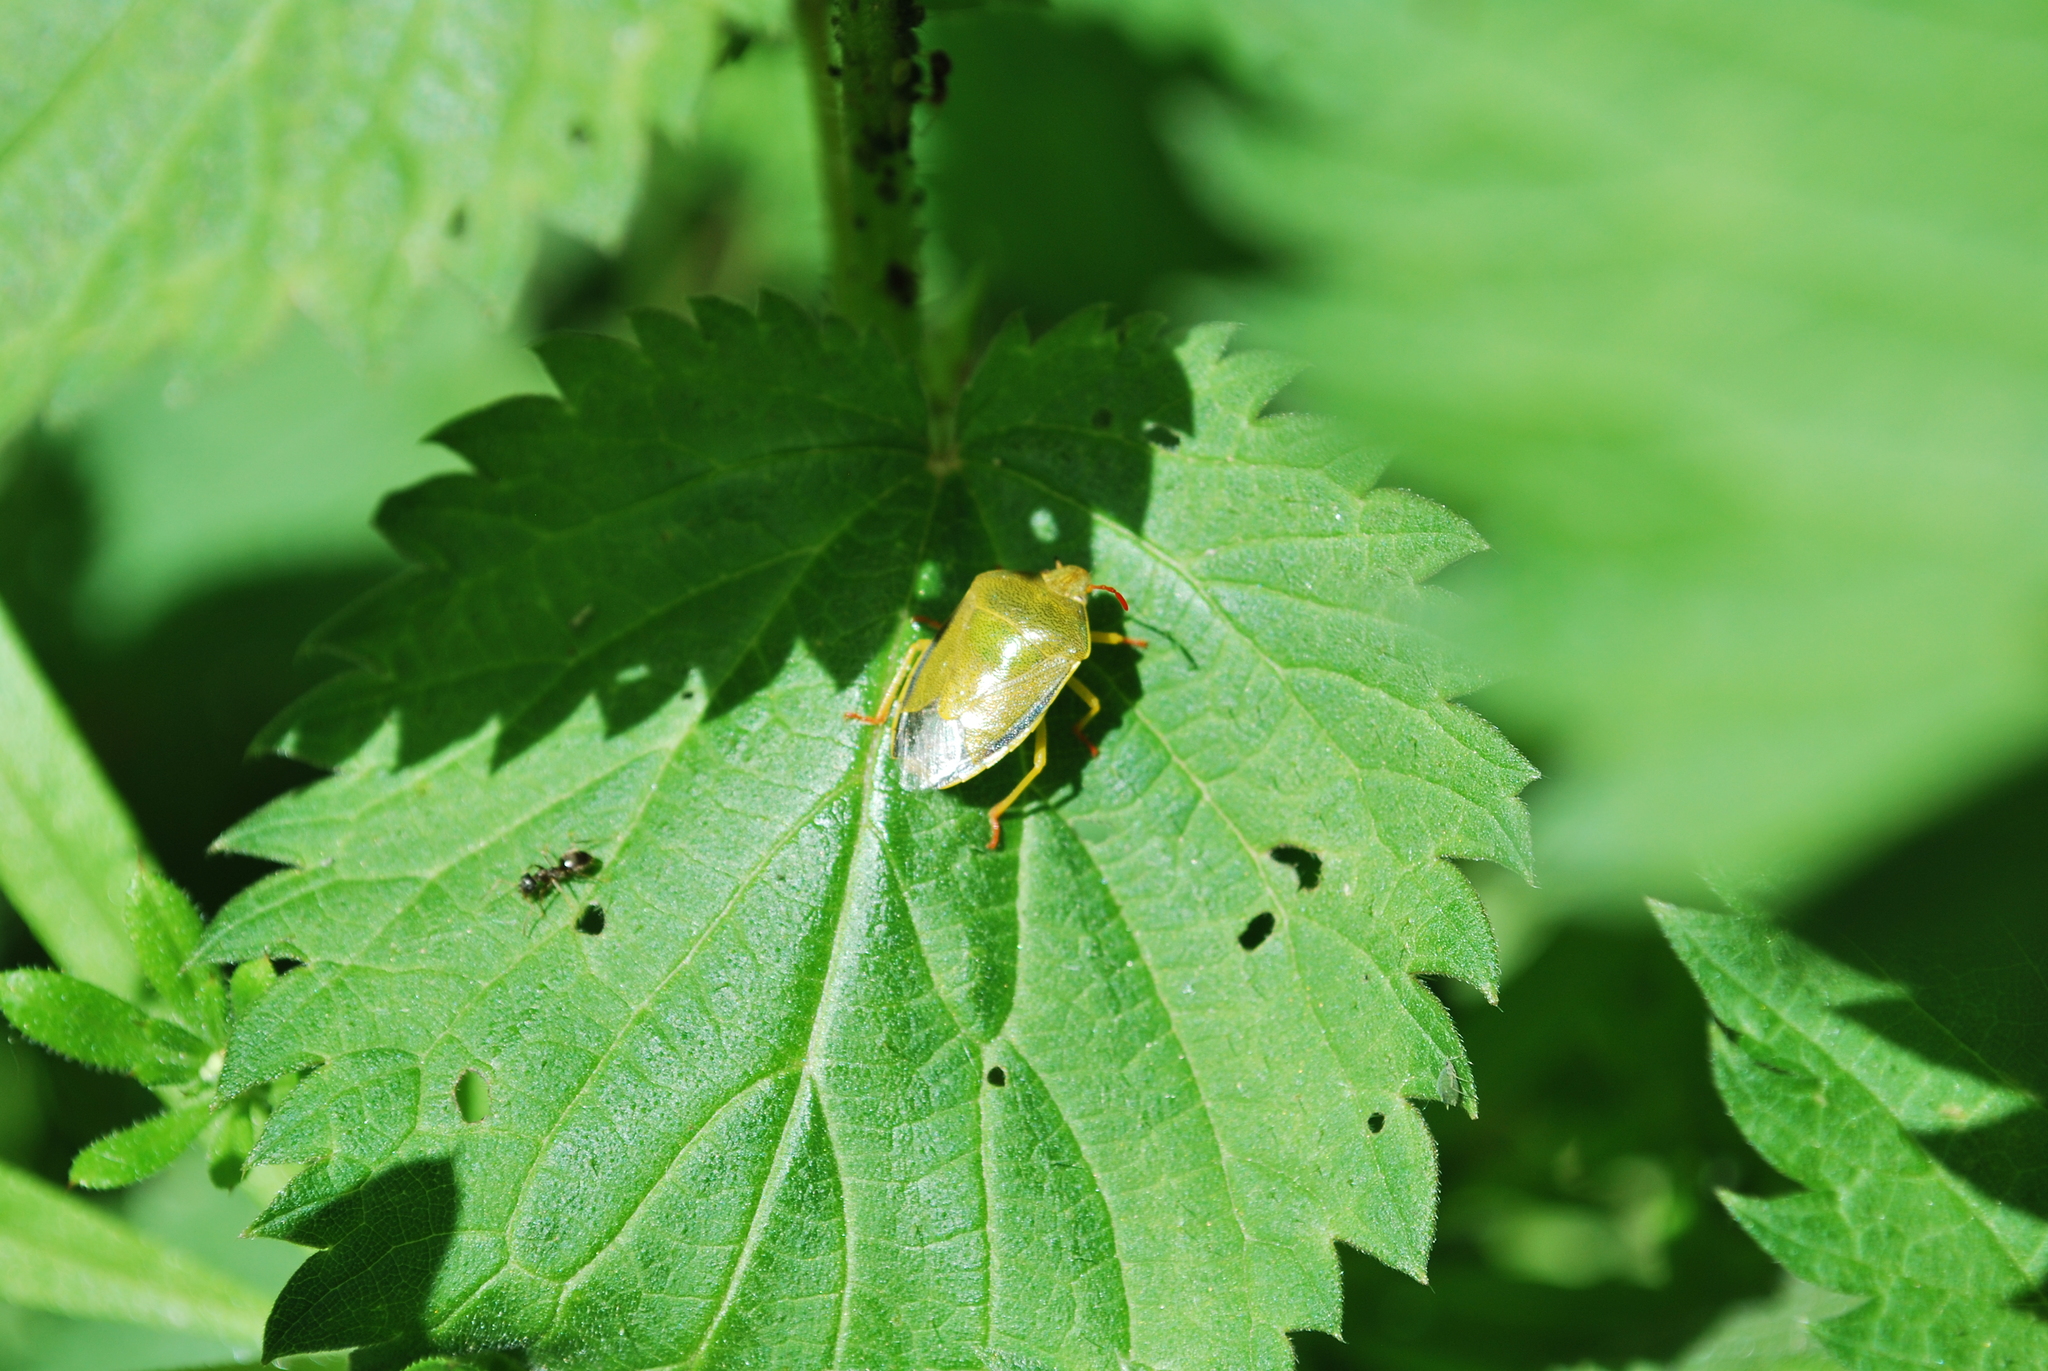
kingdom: Animalia
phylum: Arthropoda
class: Insecta
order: Hemiptera
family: Pentatomidae
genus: Piezodorus
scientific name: Piezodorus lituratus
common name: Stink bug
